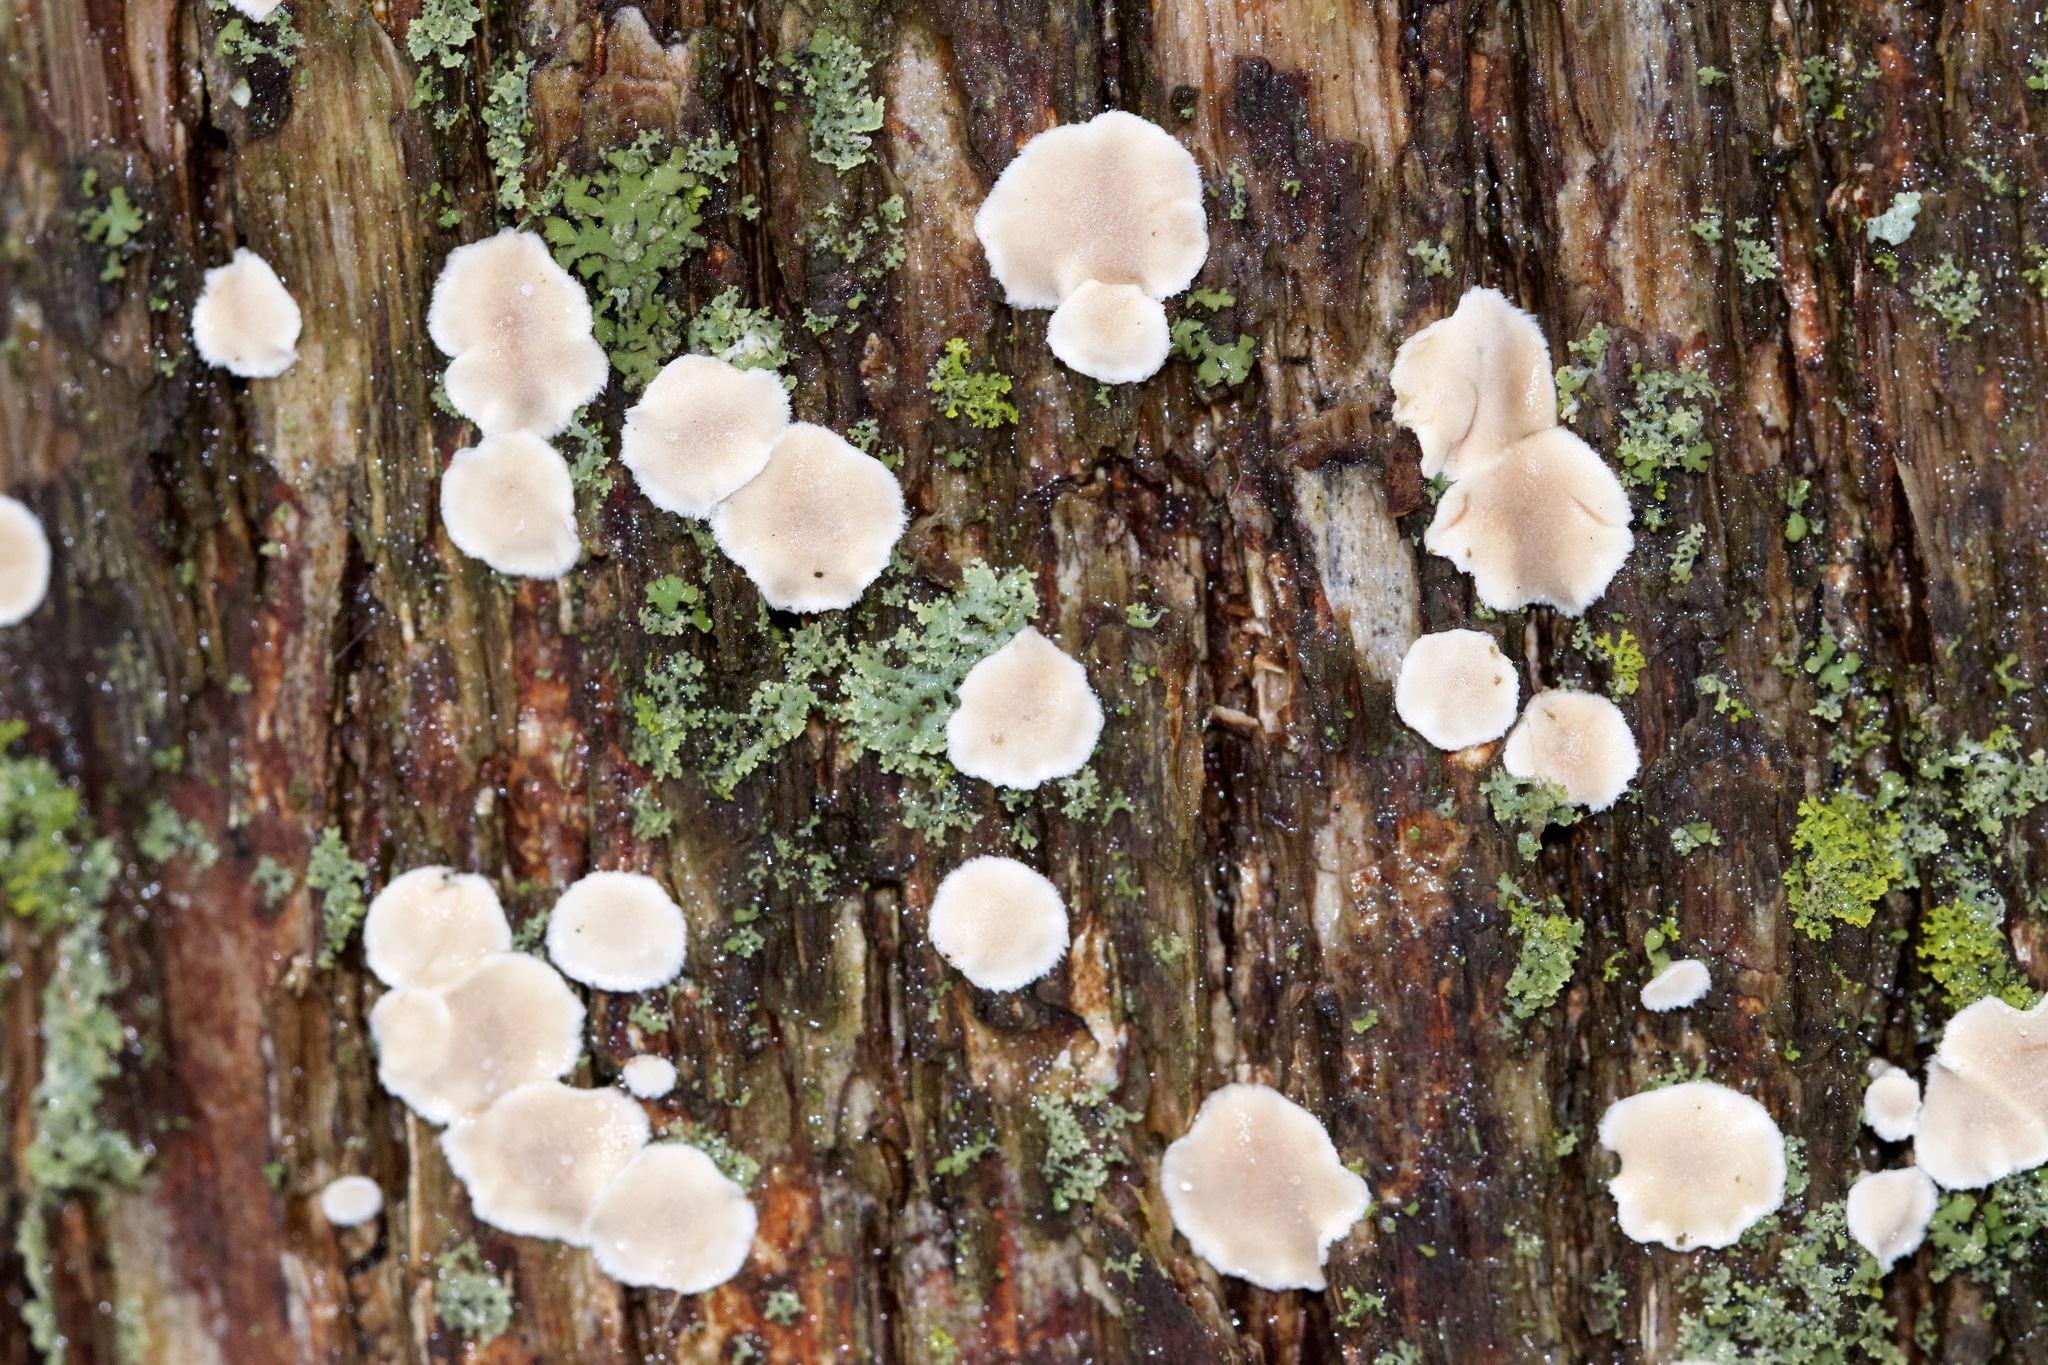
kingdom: Fungi
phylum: Basidiomycota
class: Agaricomycetes
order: Russulales
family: Stereaceae
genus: Acanthophysium
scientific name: Acanthophysium oakesii
